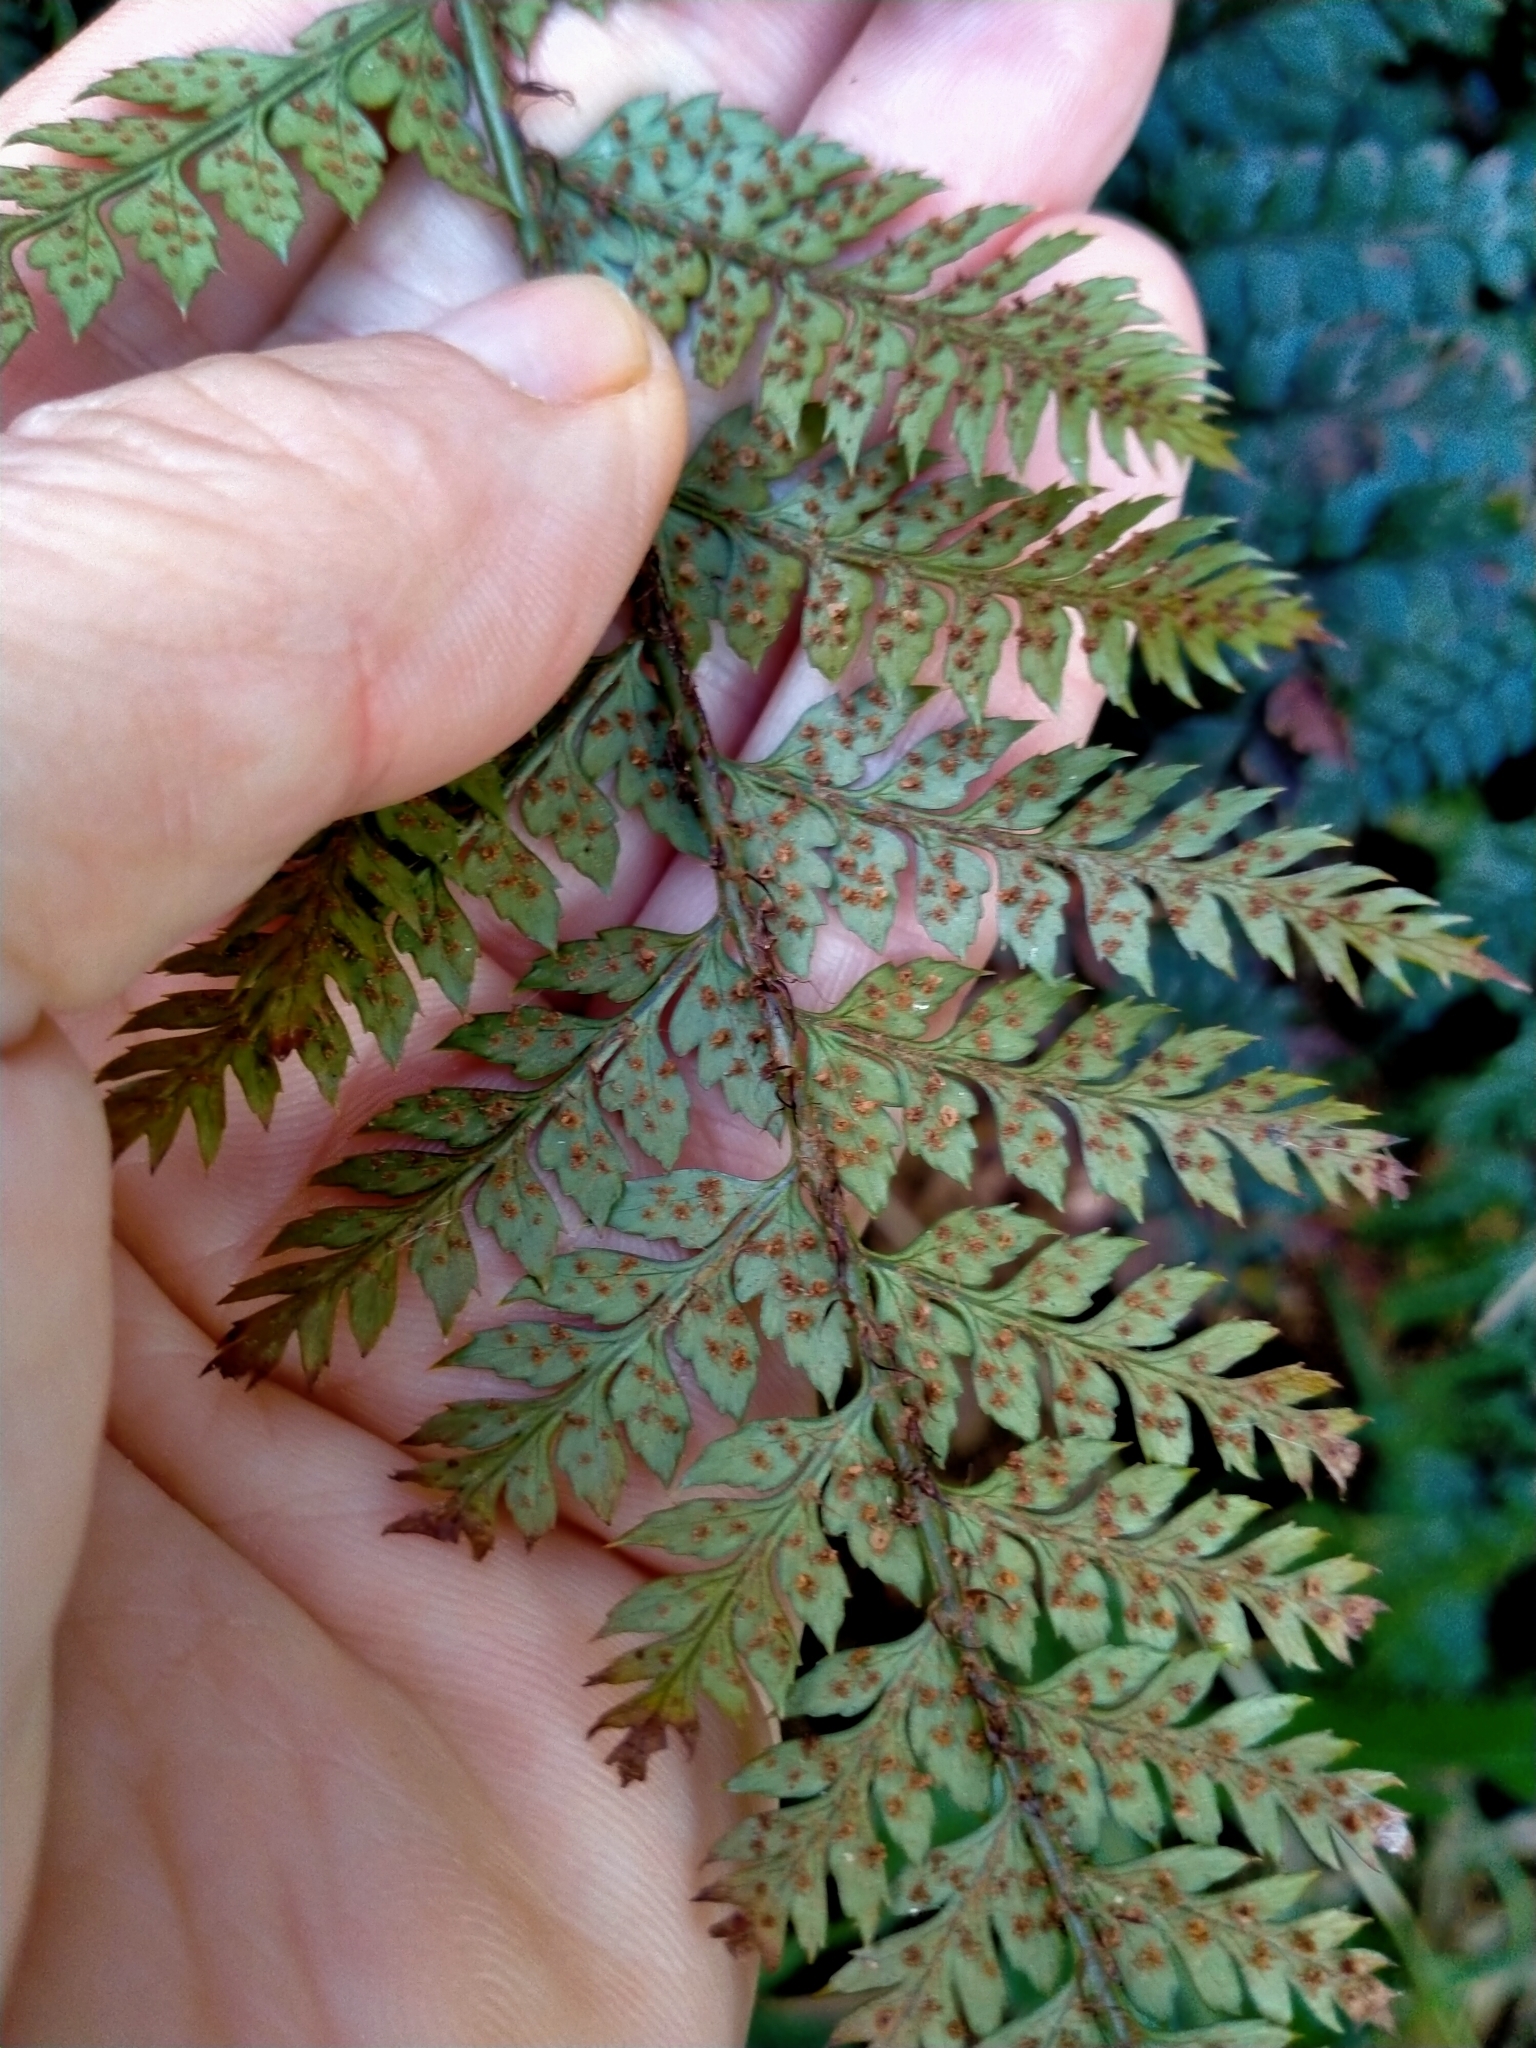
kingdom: Plantae
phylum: Tracheophyta
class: Polypodiopsida
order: Polypodiales
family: Dryopteridaceae
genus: Polystichum
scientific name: Polystichum neozelandicum
